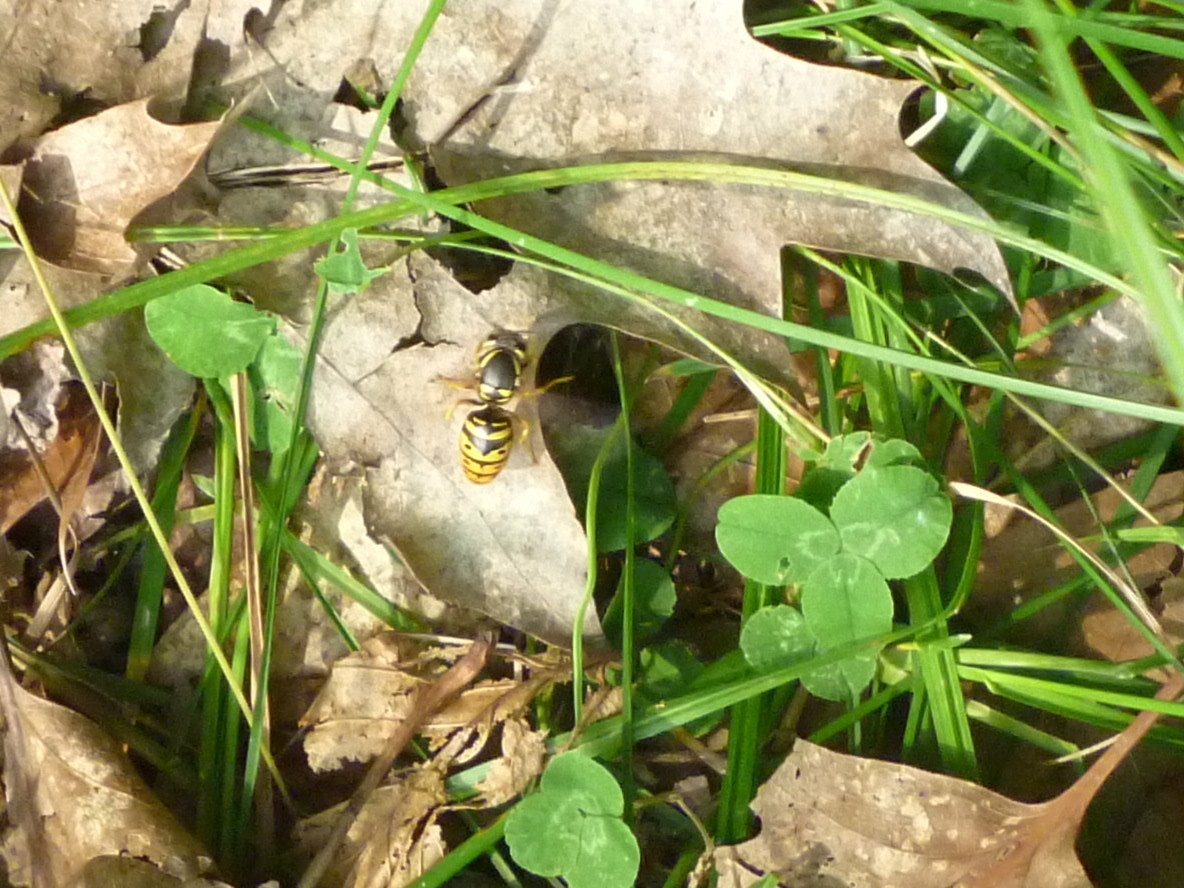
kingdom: Animalia
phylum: Arthropoda
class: Insecta
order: Hymenoptera
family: Vespidae
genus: Vespula
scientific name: Vespula maculifrons
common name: Eastern yellowjacket
